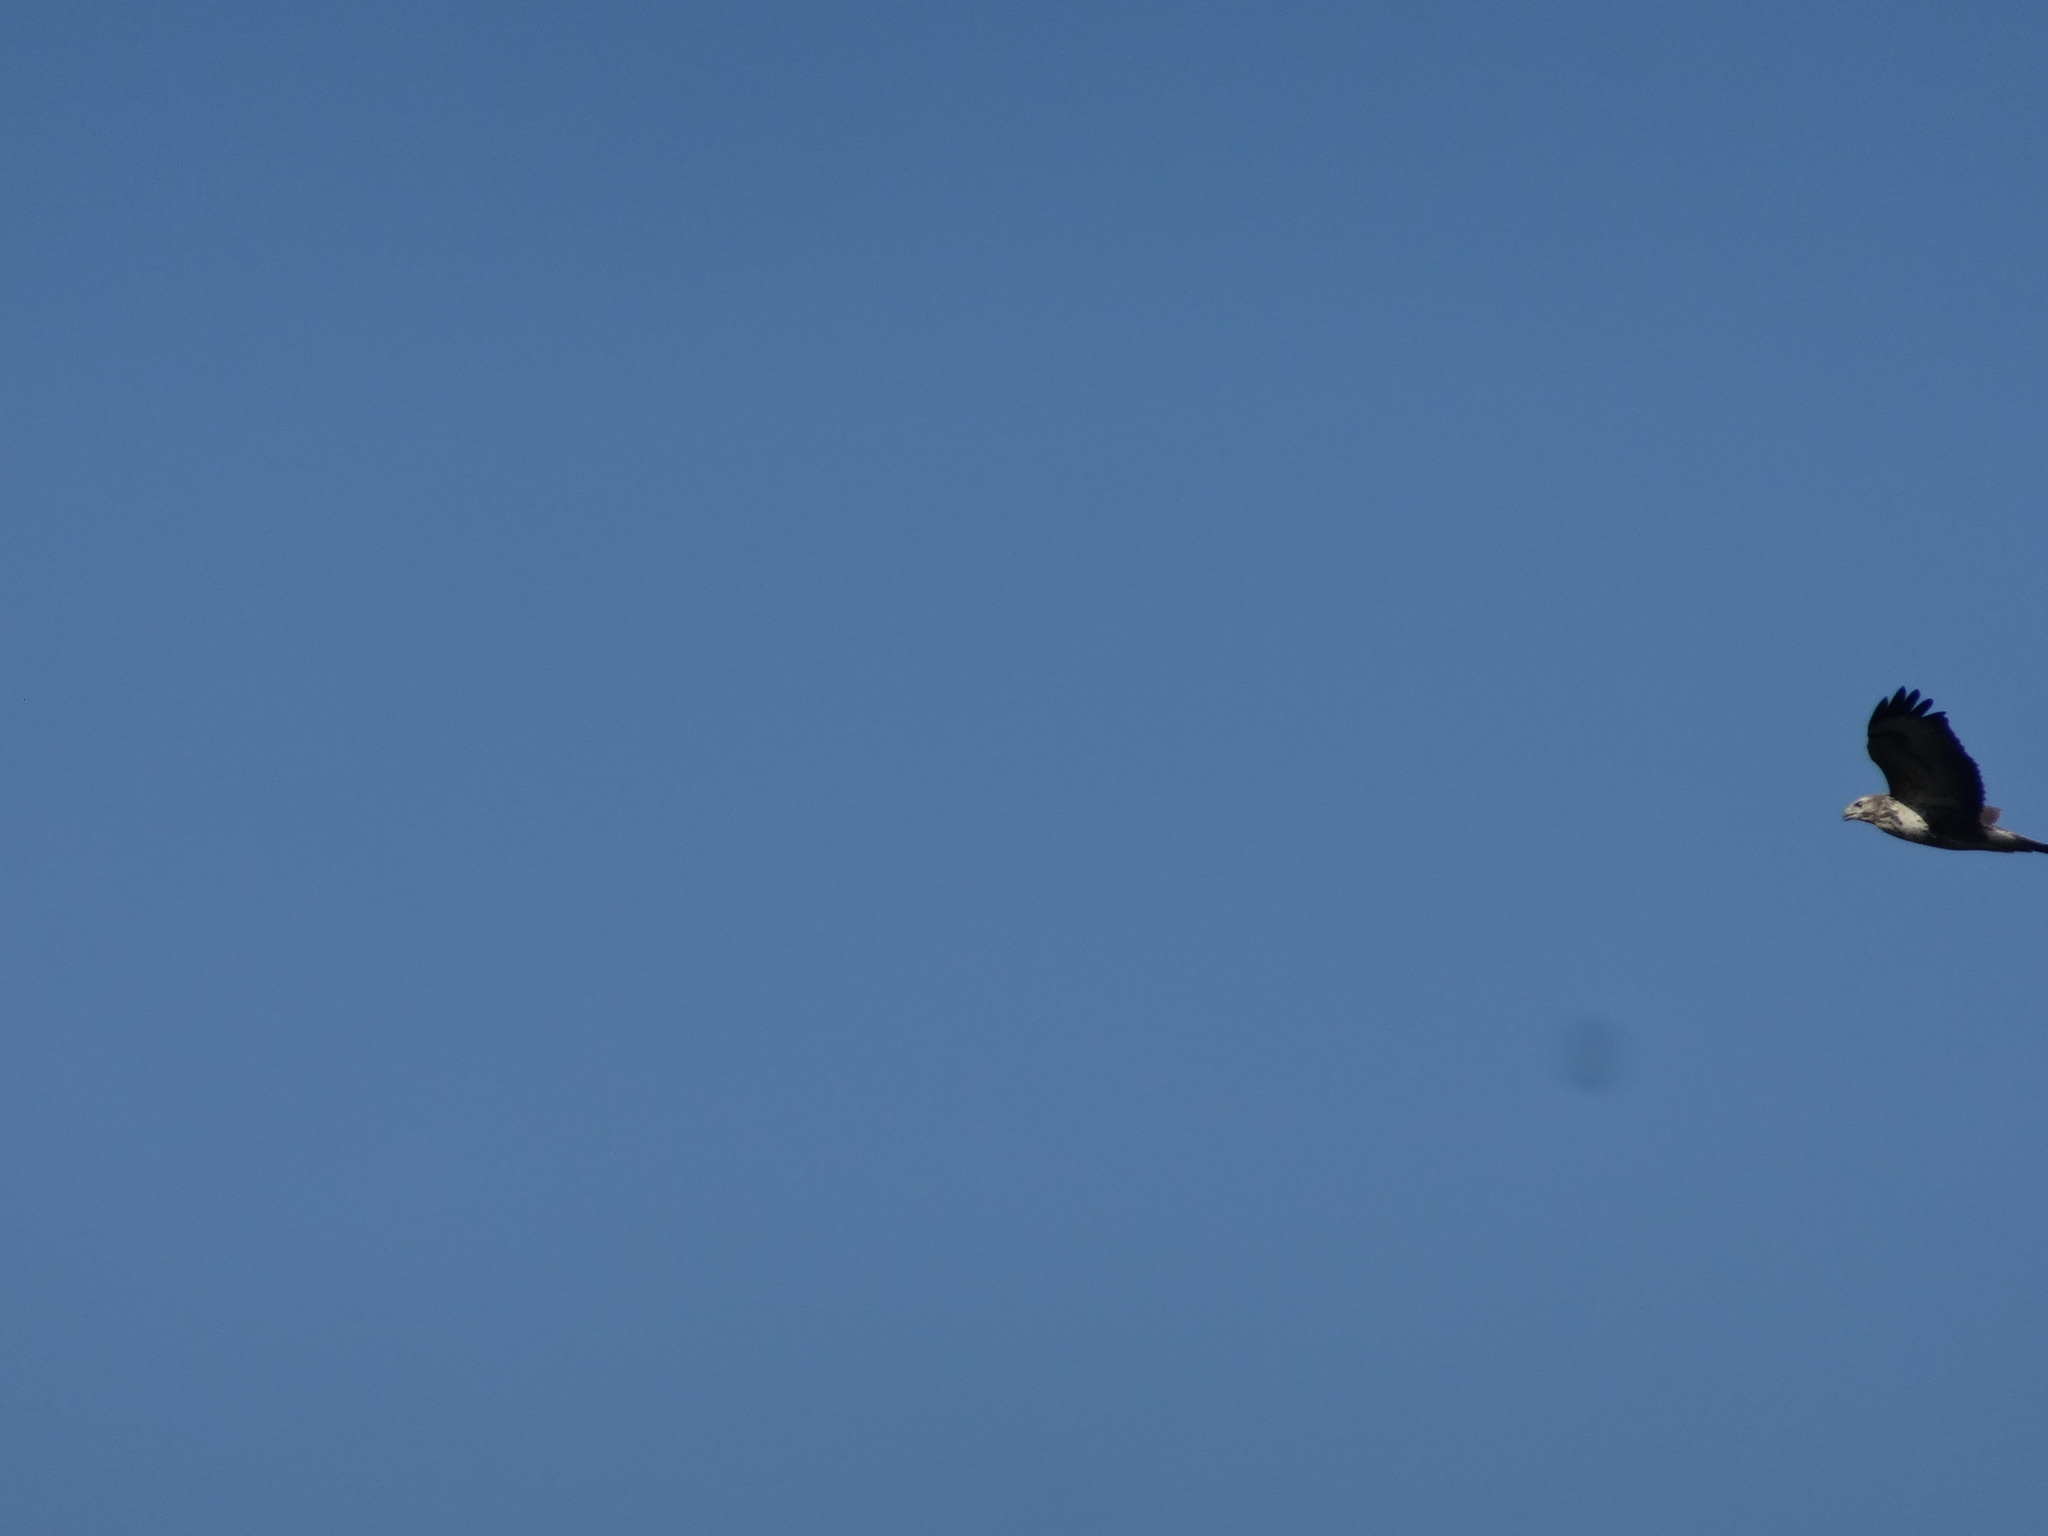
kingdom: Animalia
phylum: Chordata
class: Aves
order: Accipitriformes
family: Accipitridae
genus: Buteo
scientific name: Buteo buteo
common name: Common buzzard
